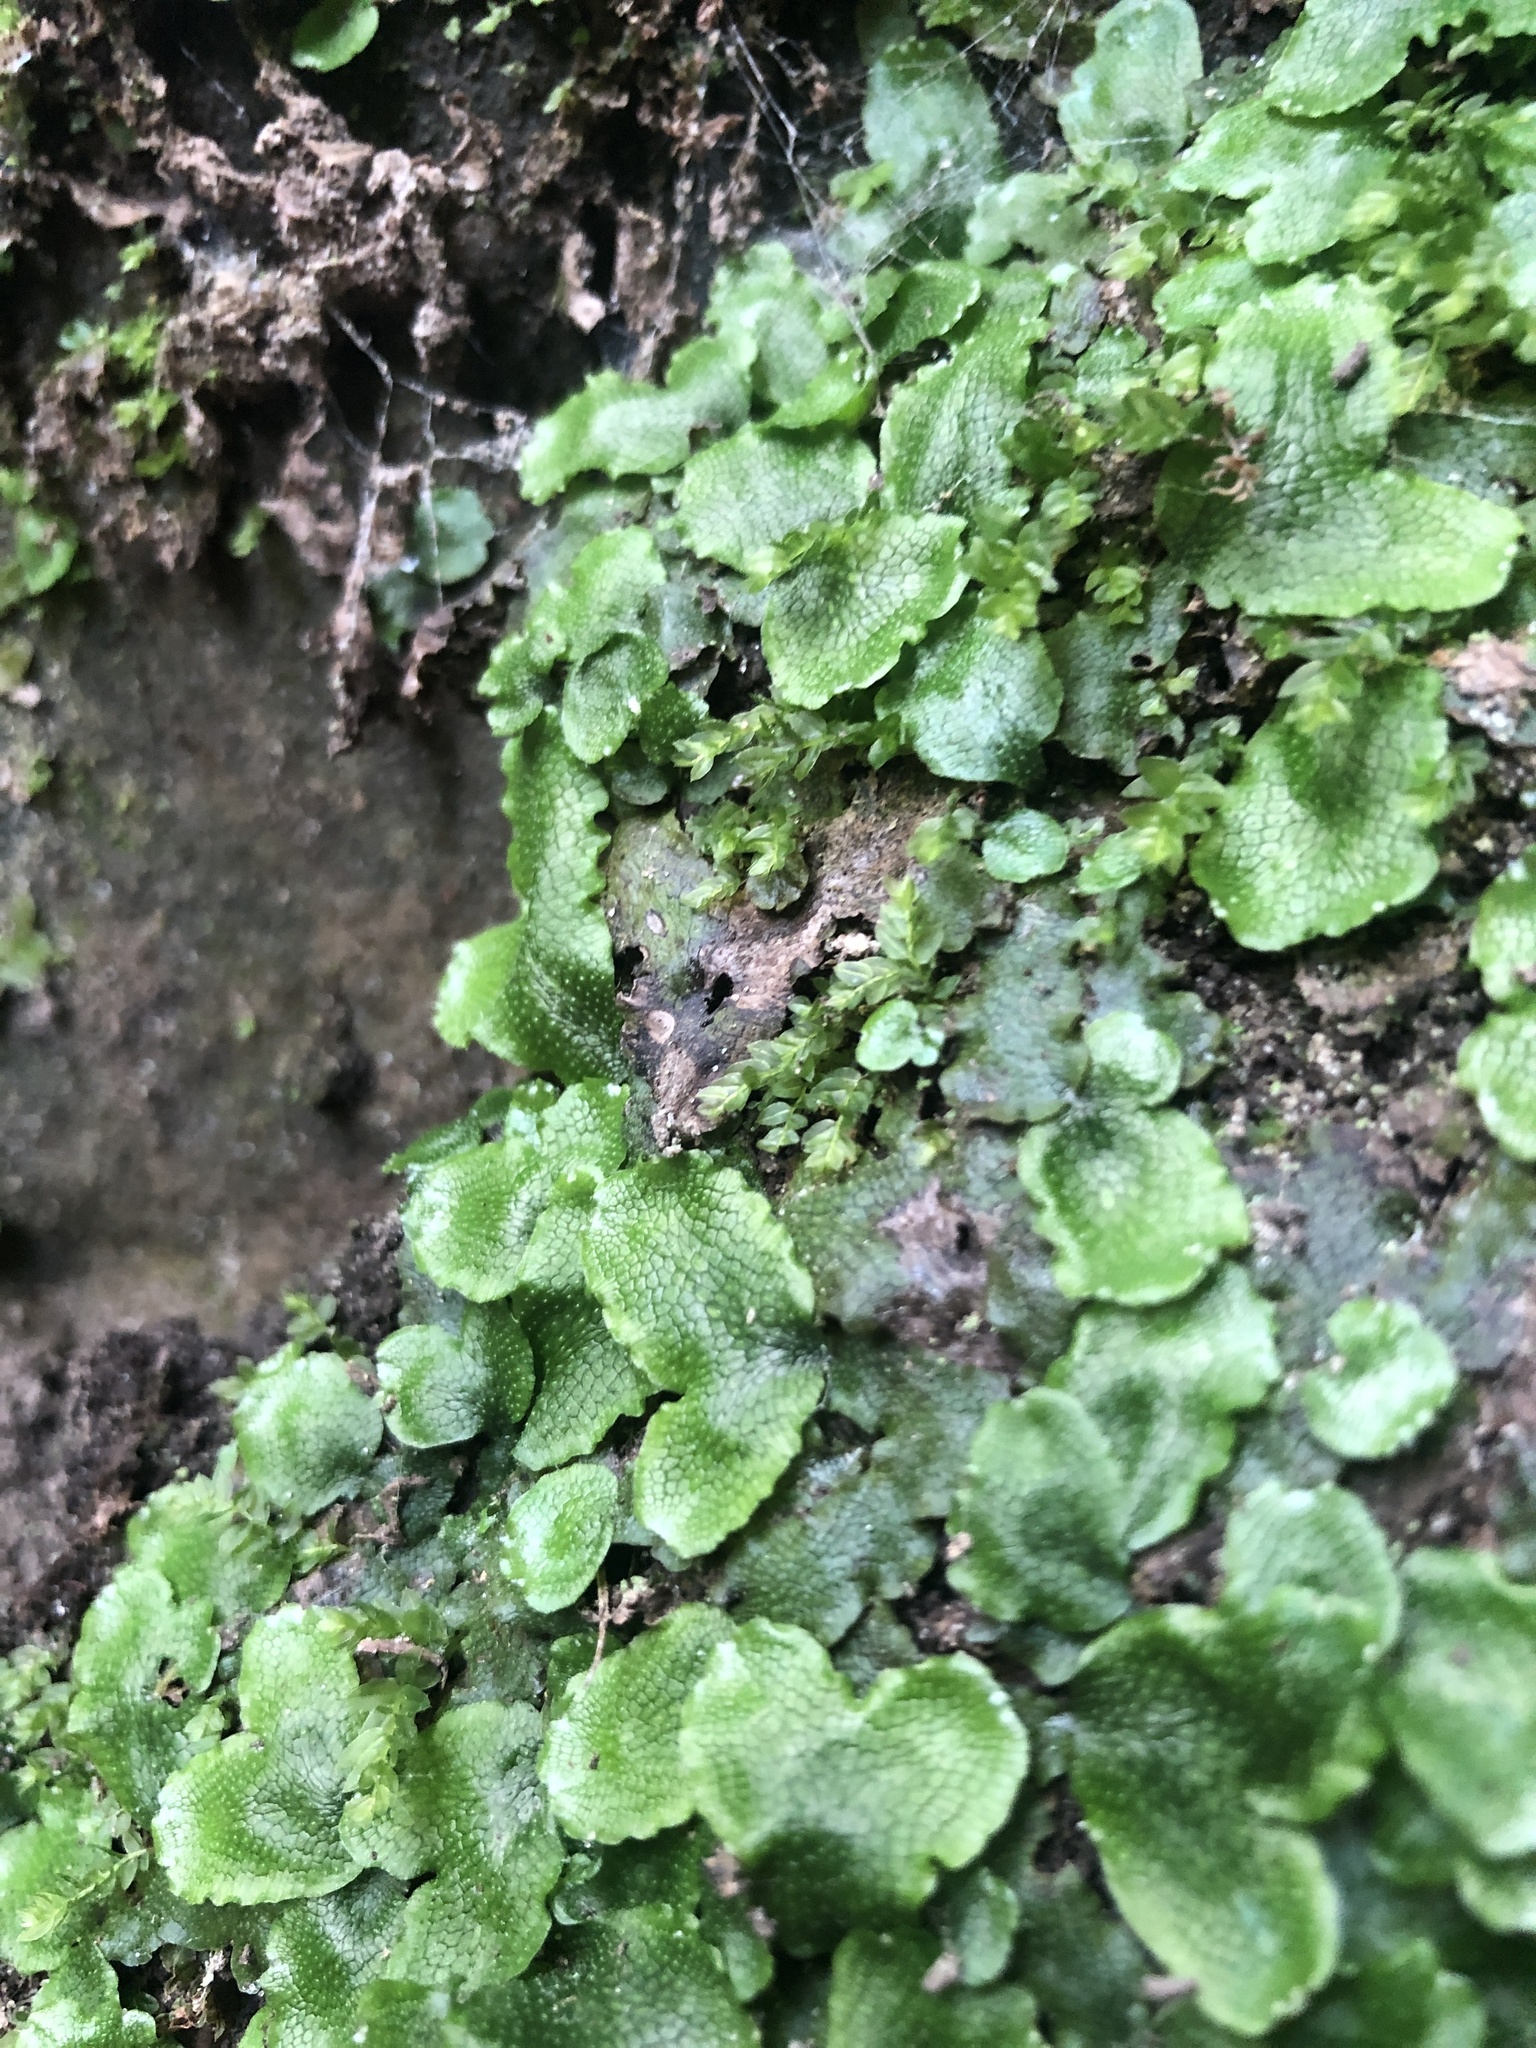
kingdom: Plantae
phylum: Marchantiophyta
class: Marchantiopsida
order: Marchantiales
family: Conocephalaceae
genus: Conocephalum
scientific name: Conocephalum salebrosum
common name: Cat-tongue liverwort
